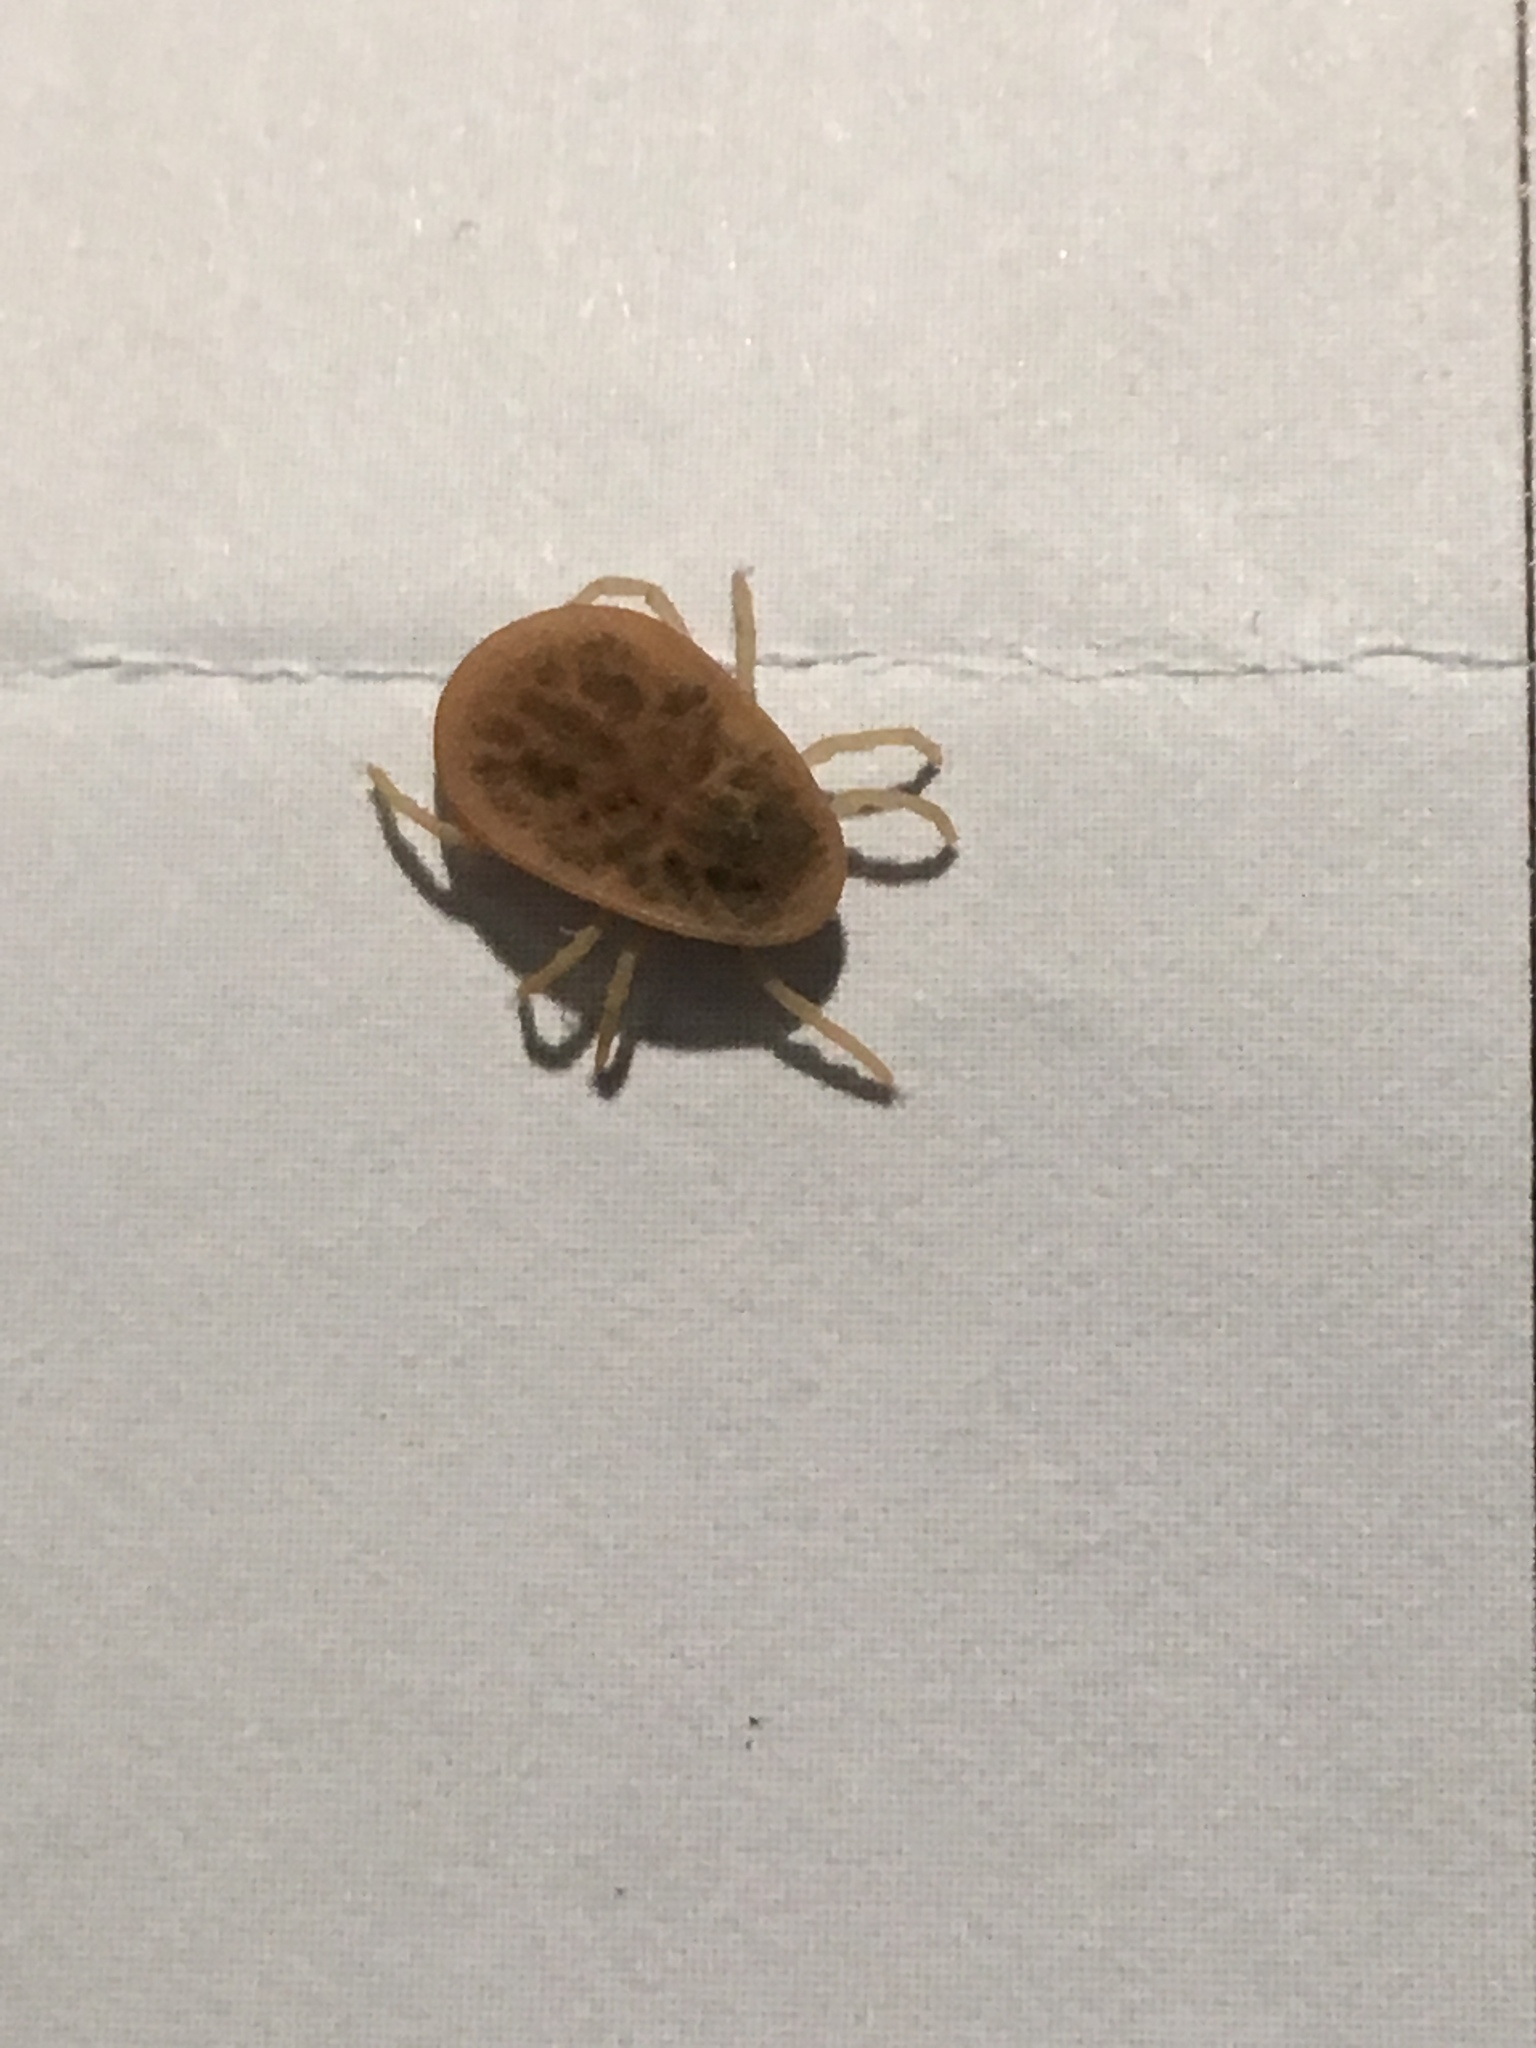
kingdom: Animalia
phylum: Arthropoda
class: Arachnida
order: Ixodida
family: Argasidae
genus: Argas
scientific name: Argas reflexus
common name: Pigeon tick
